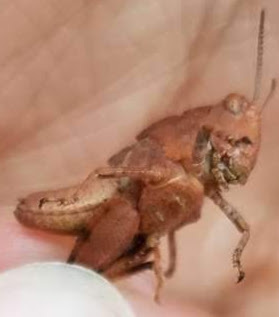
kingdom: Animalia
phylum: Arthropoda
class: Insecta
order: Orthoptera
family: Acrididae
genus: Dissosteira
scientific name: Dissosteira carolina
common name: Carolina grasshopper
